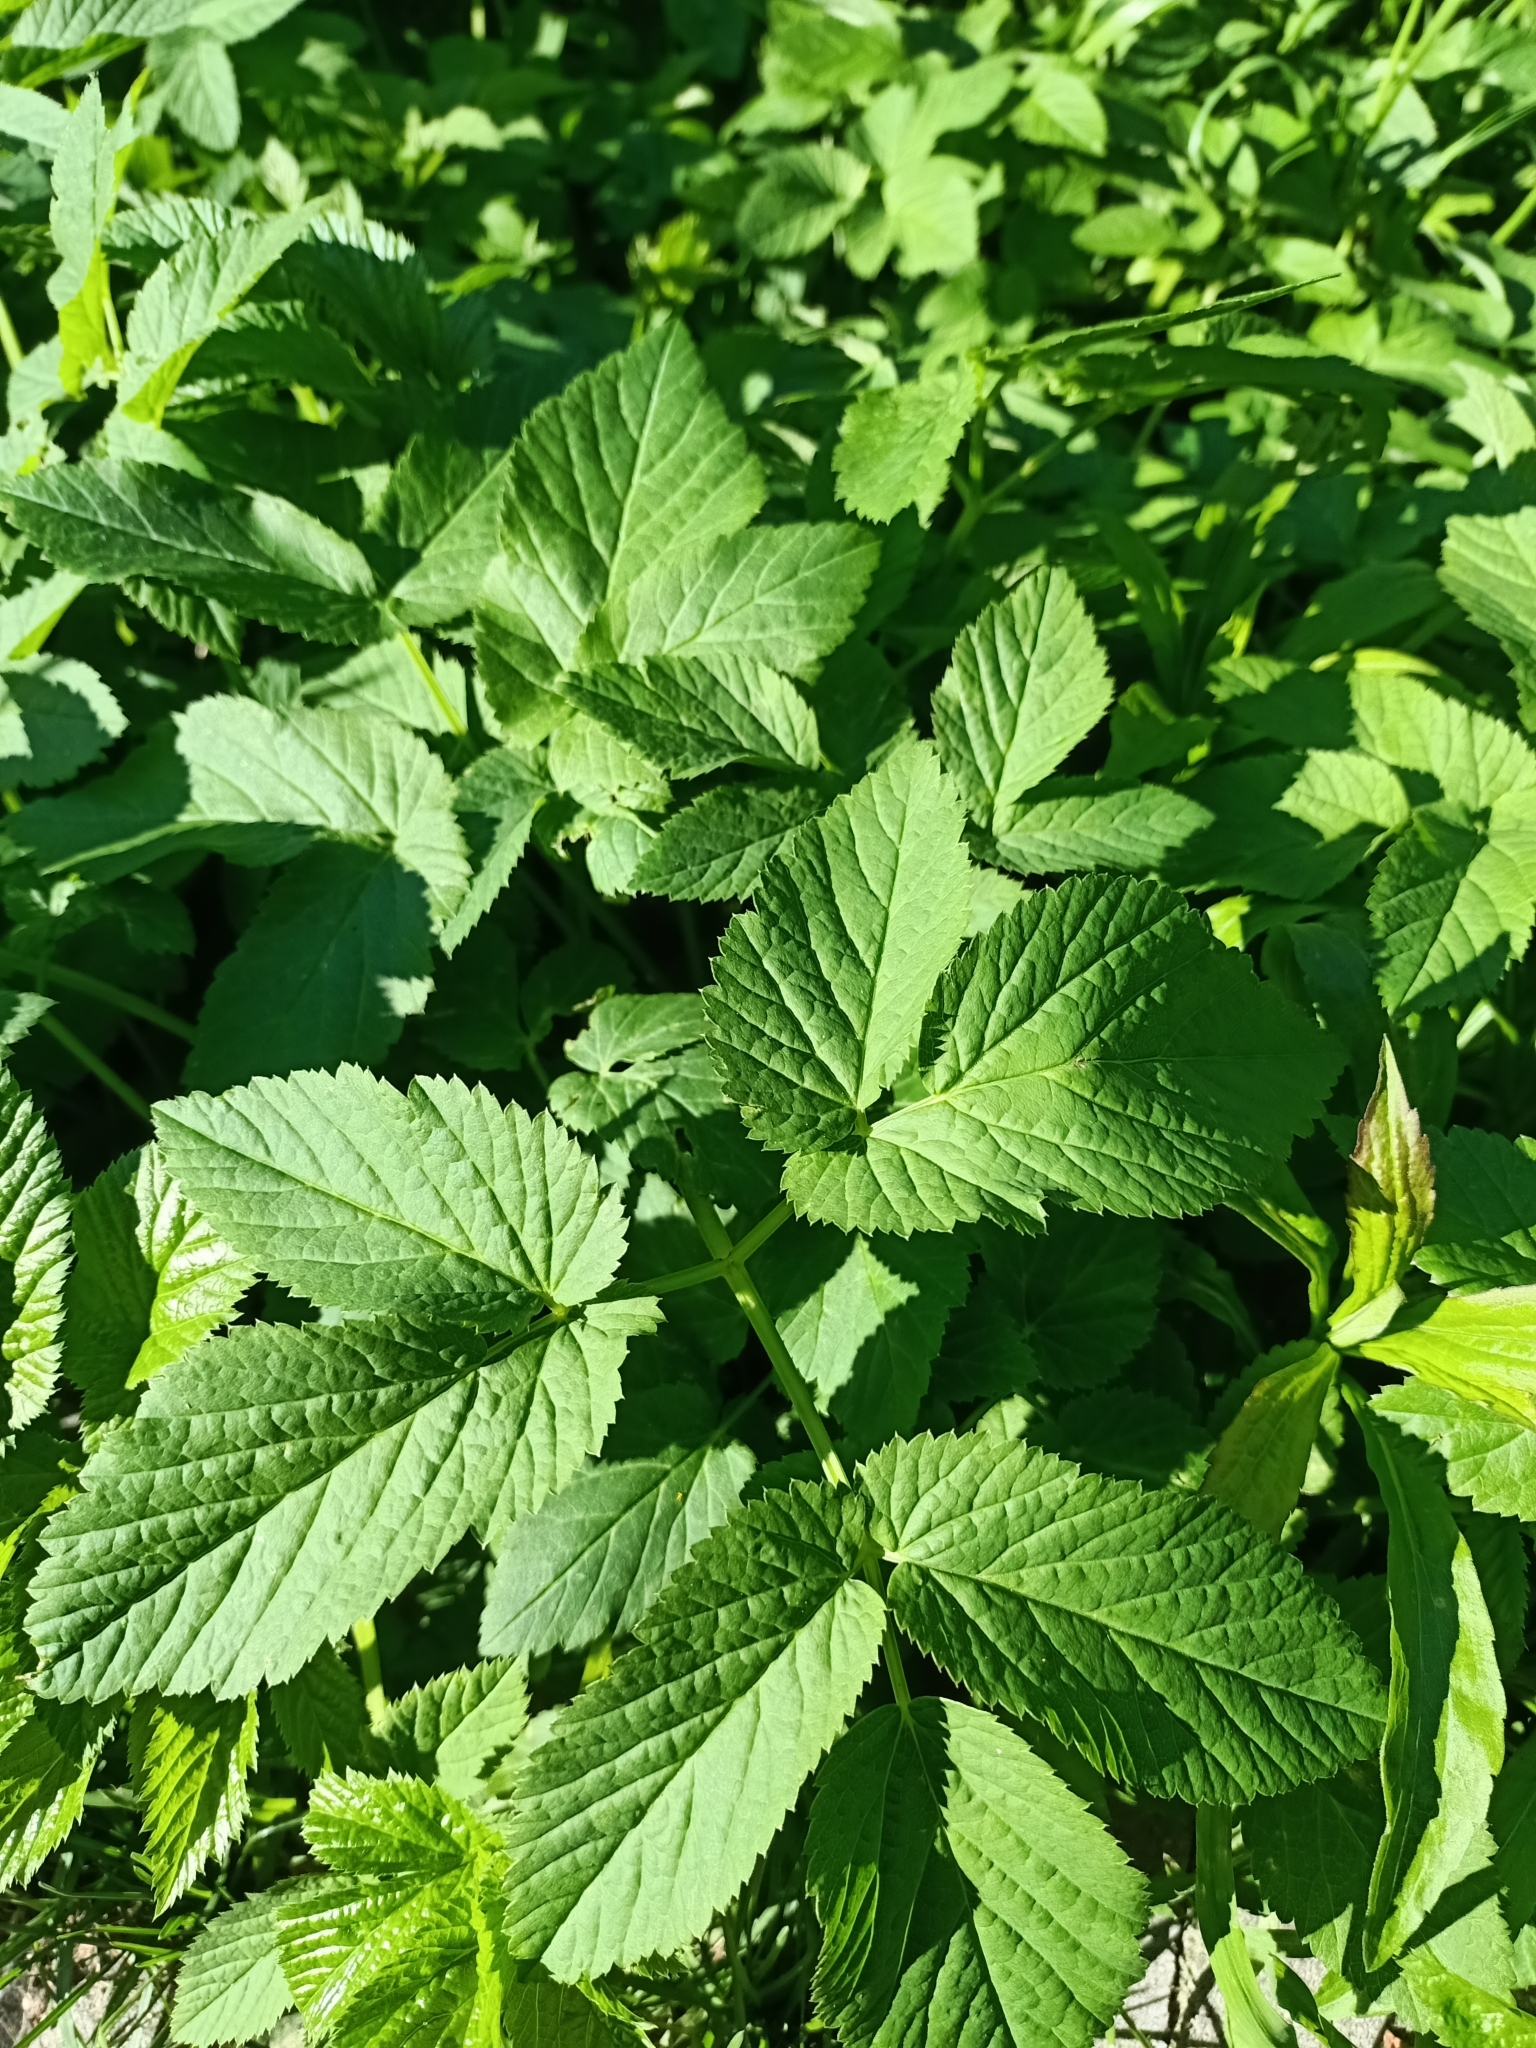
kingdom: Plantae
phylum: Tracheophyta
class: Magnoliopsida
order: Apiales
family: Apiaceae
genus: Aegopodium
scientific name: Aegopodium podagraria
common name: Ground-elder
